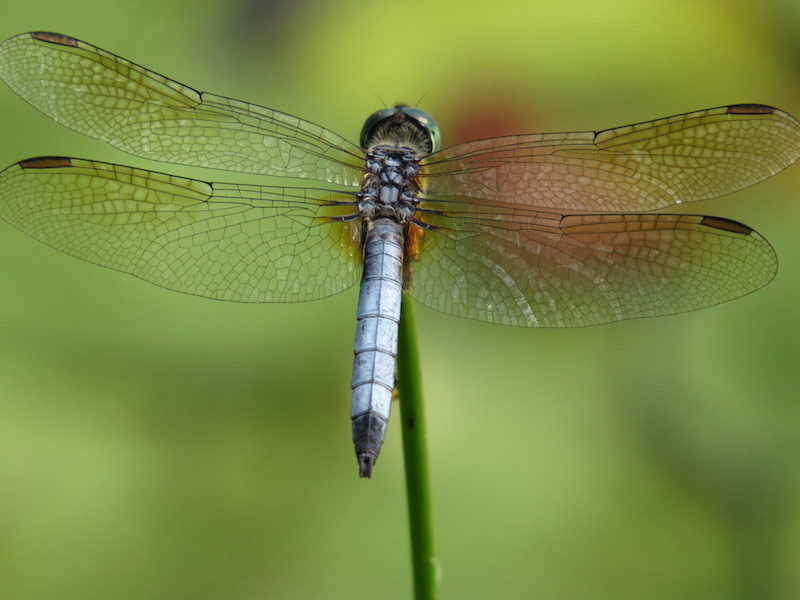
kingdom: Animalia
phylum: Arthropoda
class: Insecta
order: Odonata
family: Libellulidae
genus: Pachydiplax
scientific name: Pachydiplax longipennis
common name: Blue dasher
